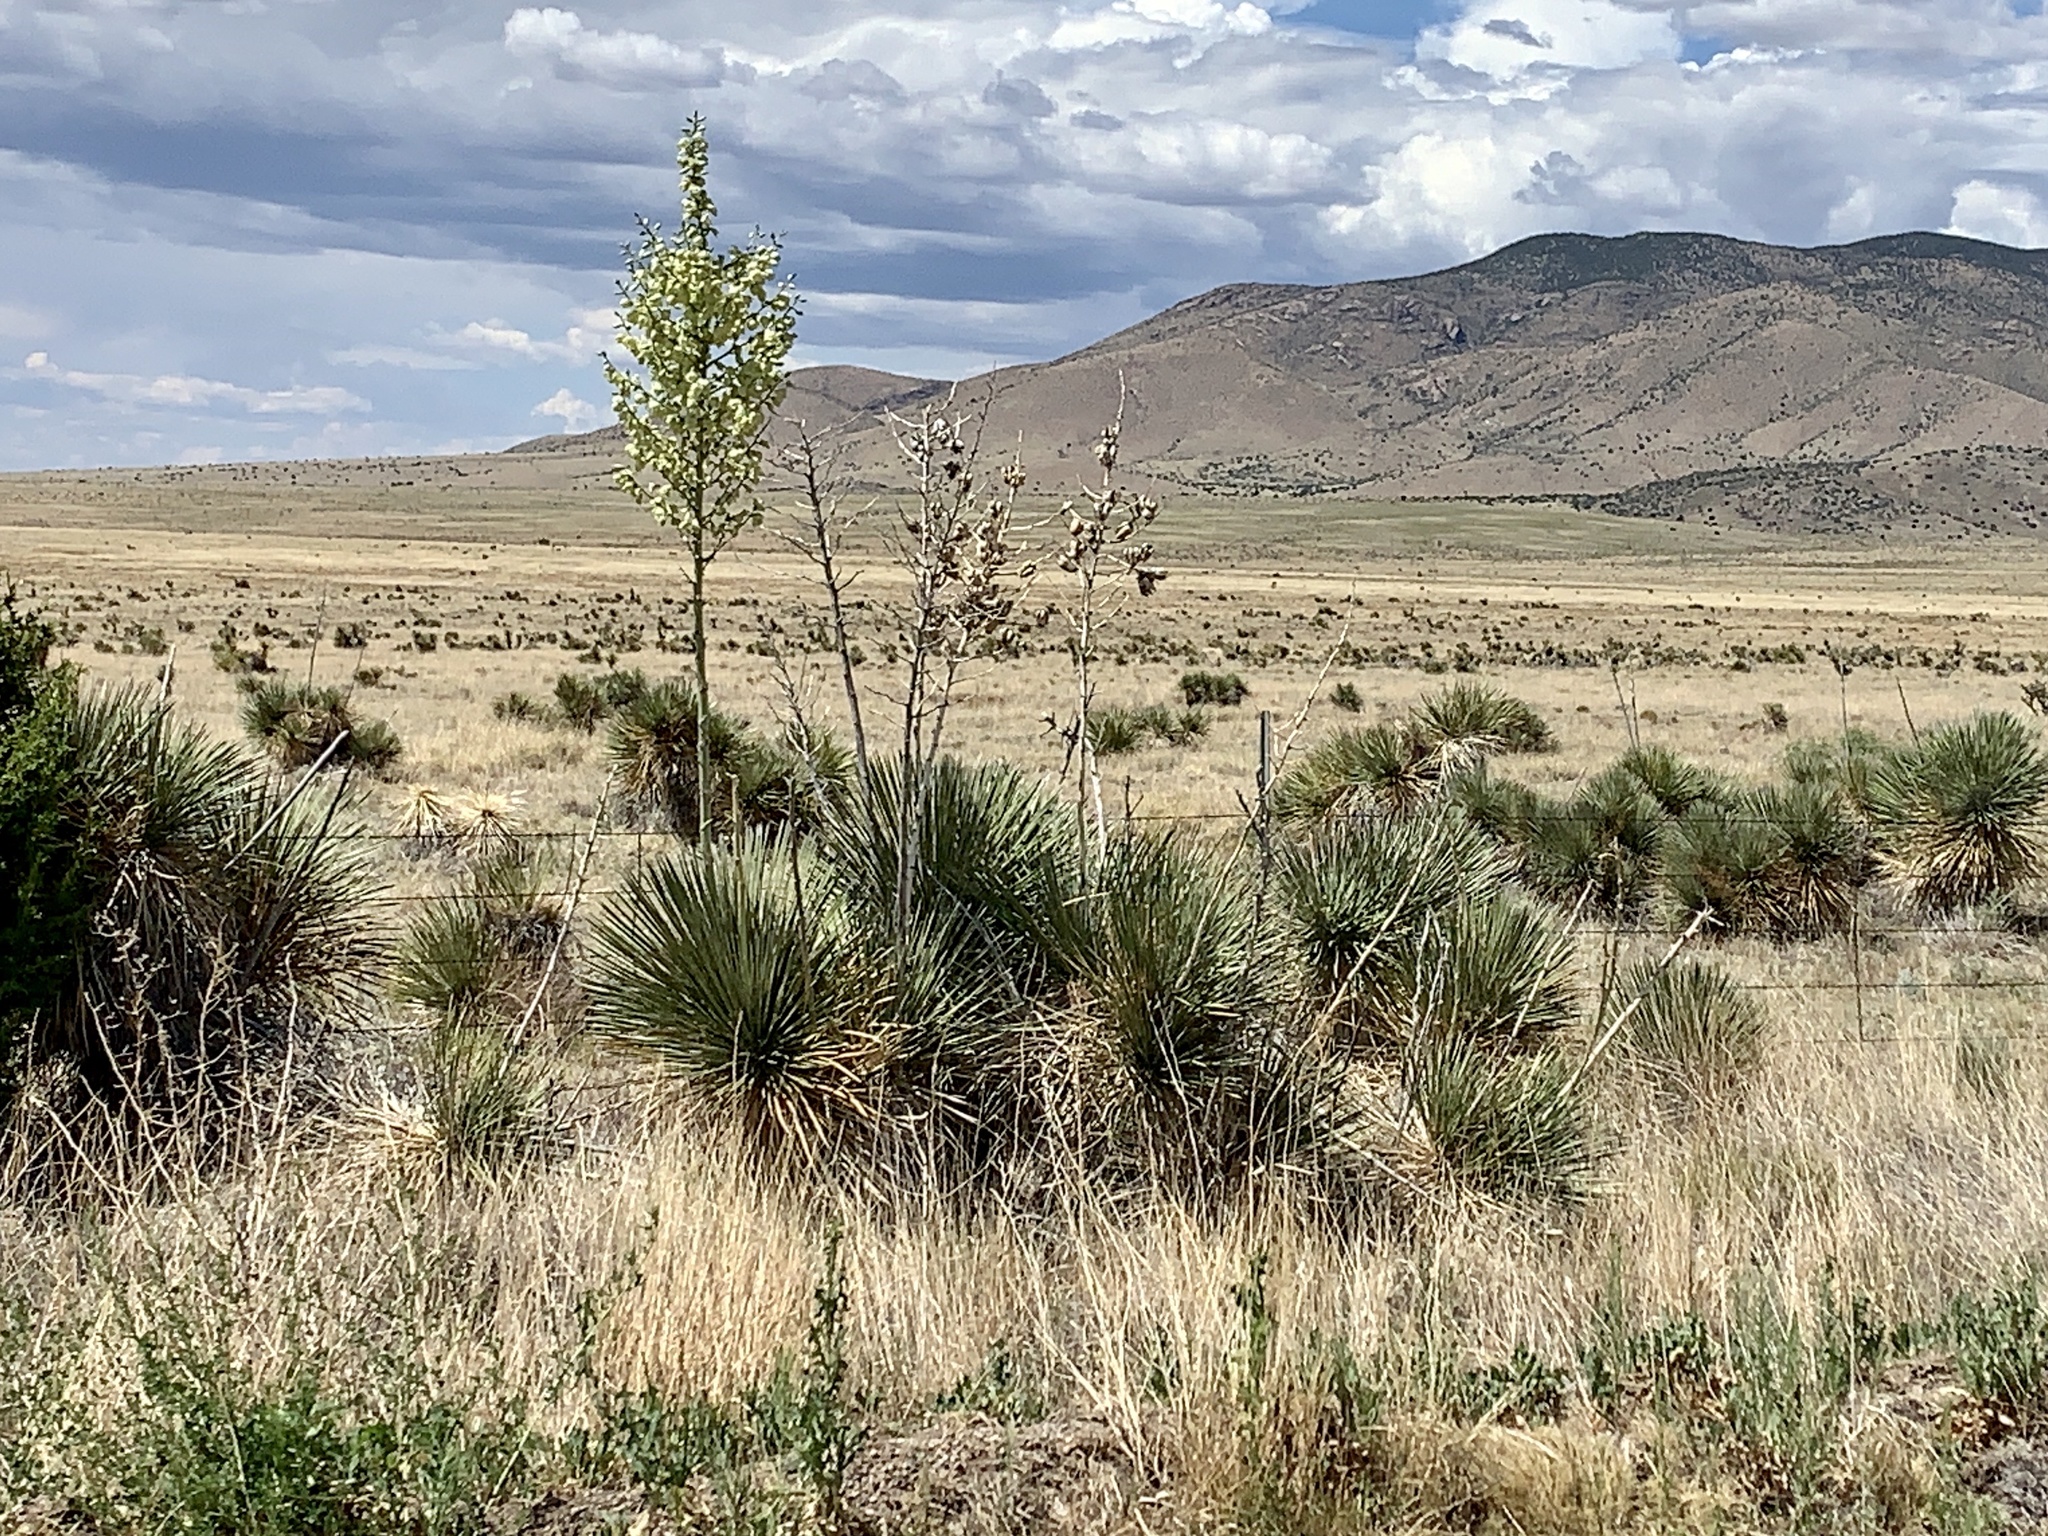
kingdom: Plantae
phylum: Tracheophyta
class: Liliopsida
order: Asparagales
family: Asparagaceae
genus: Yucca
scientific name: Yucca elata
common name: Palmella
